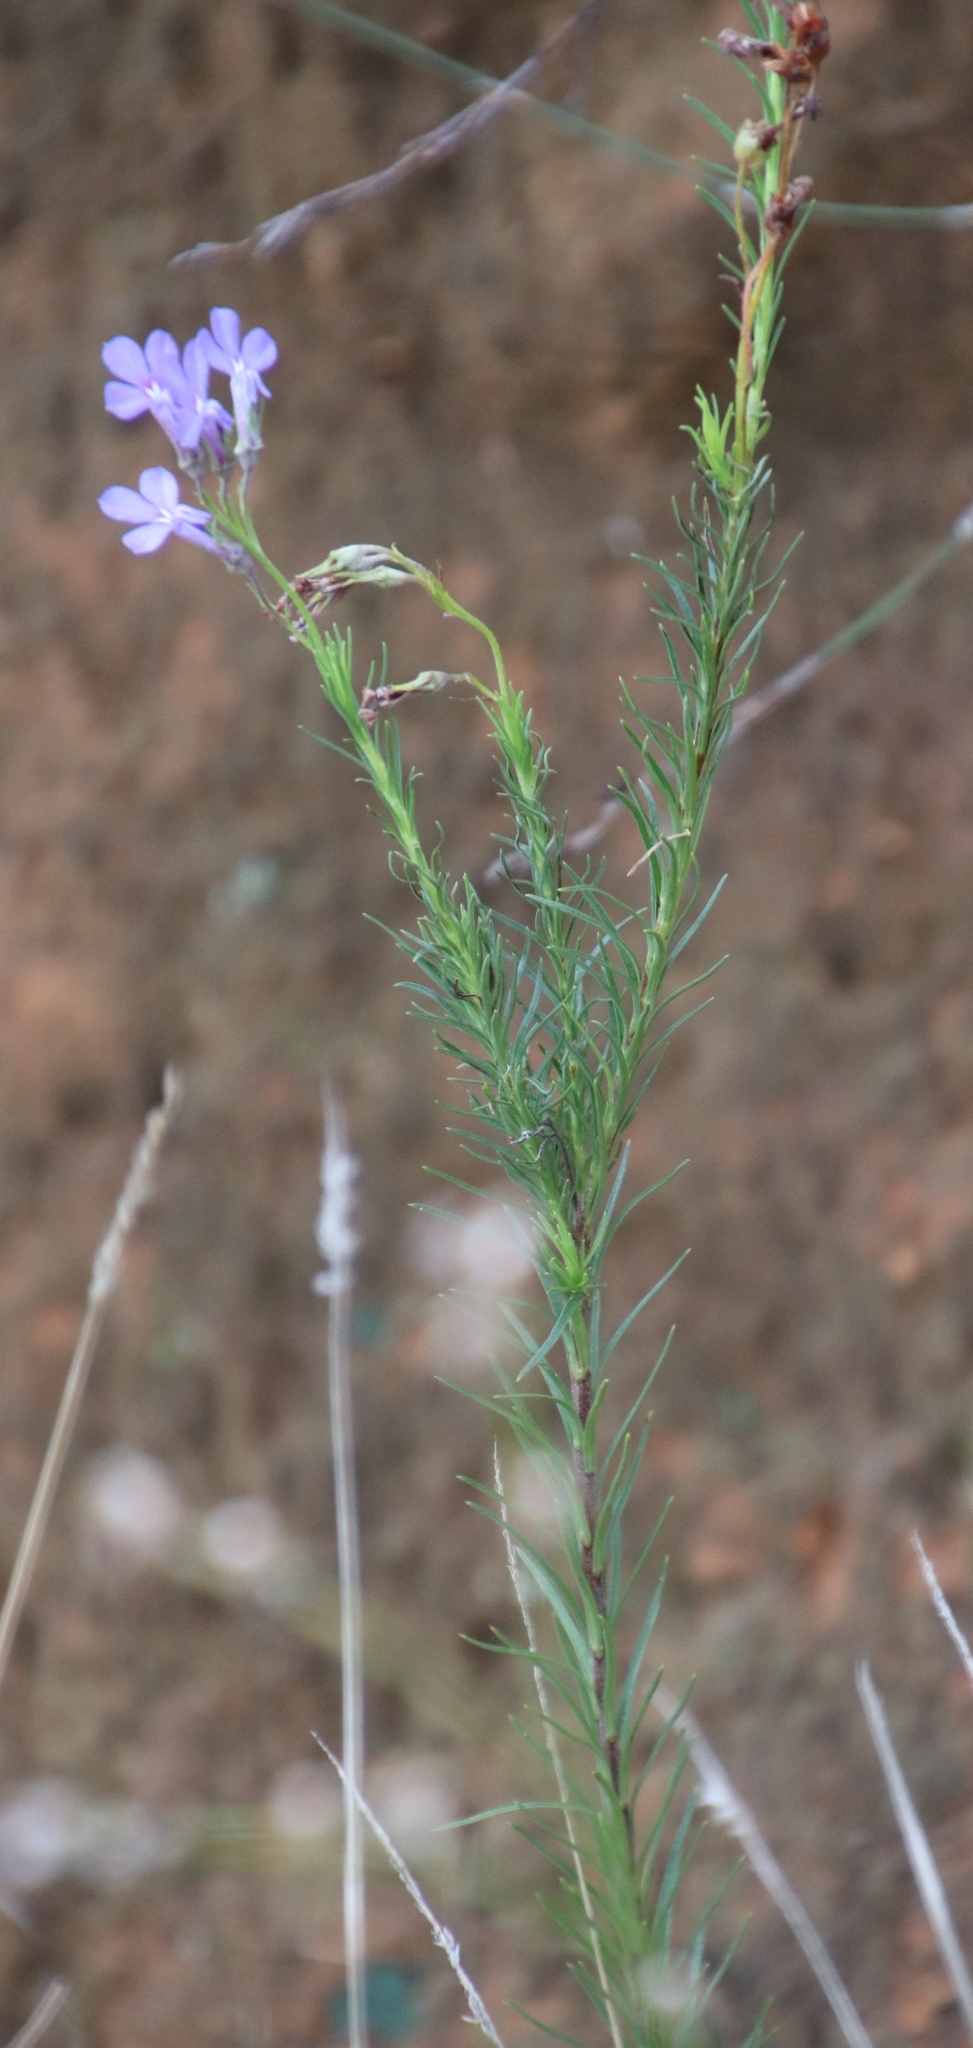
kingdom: Plantae
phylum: Tracheophyta
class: Magnoliopsida
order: Asterales
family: Campanulaceae
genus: Lobelia
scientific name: Lobelia pinifolia
